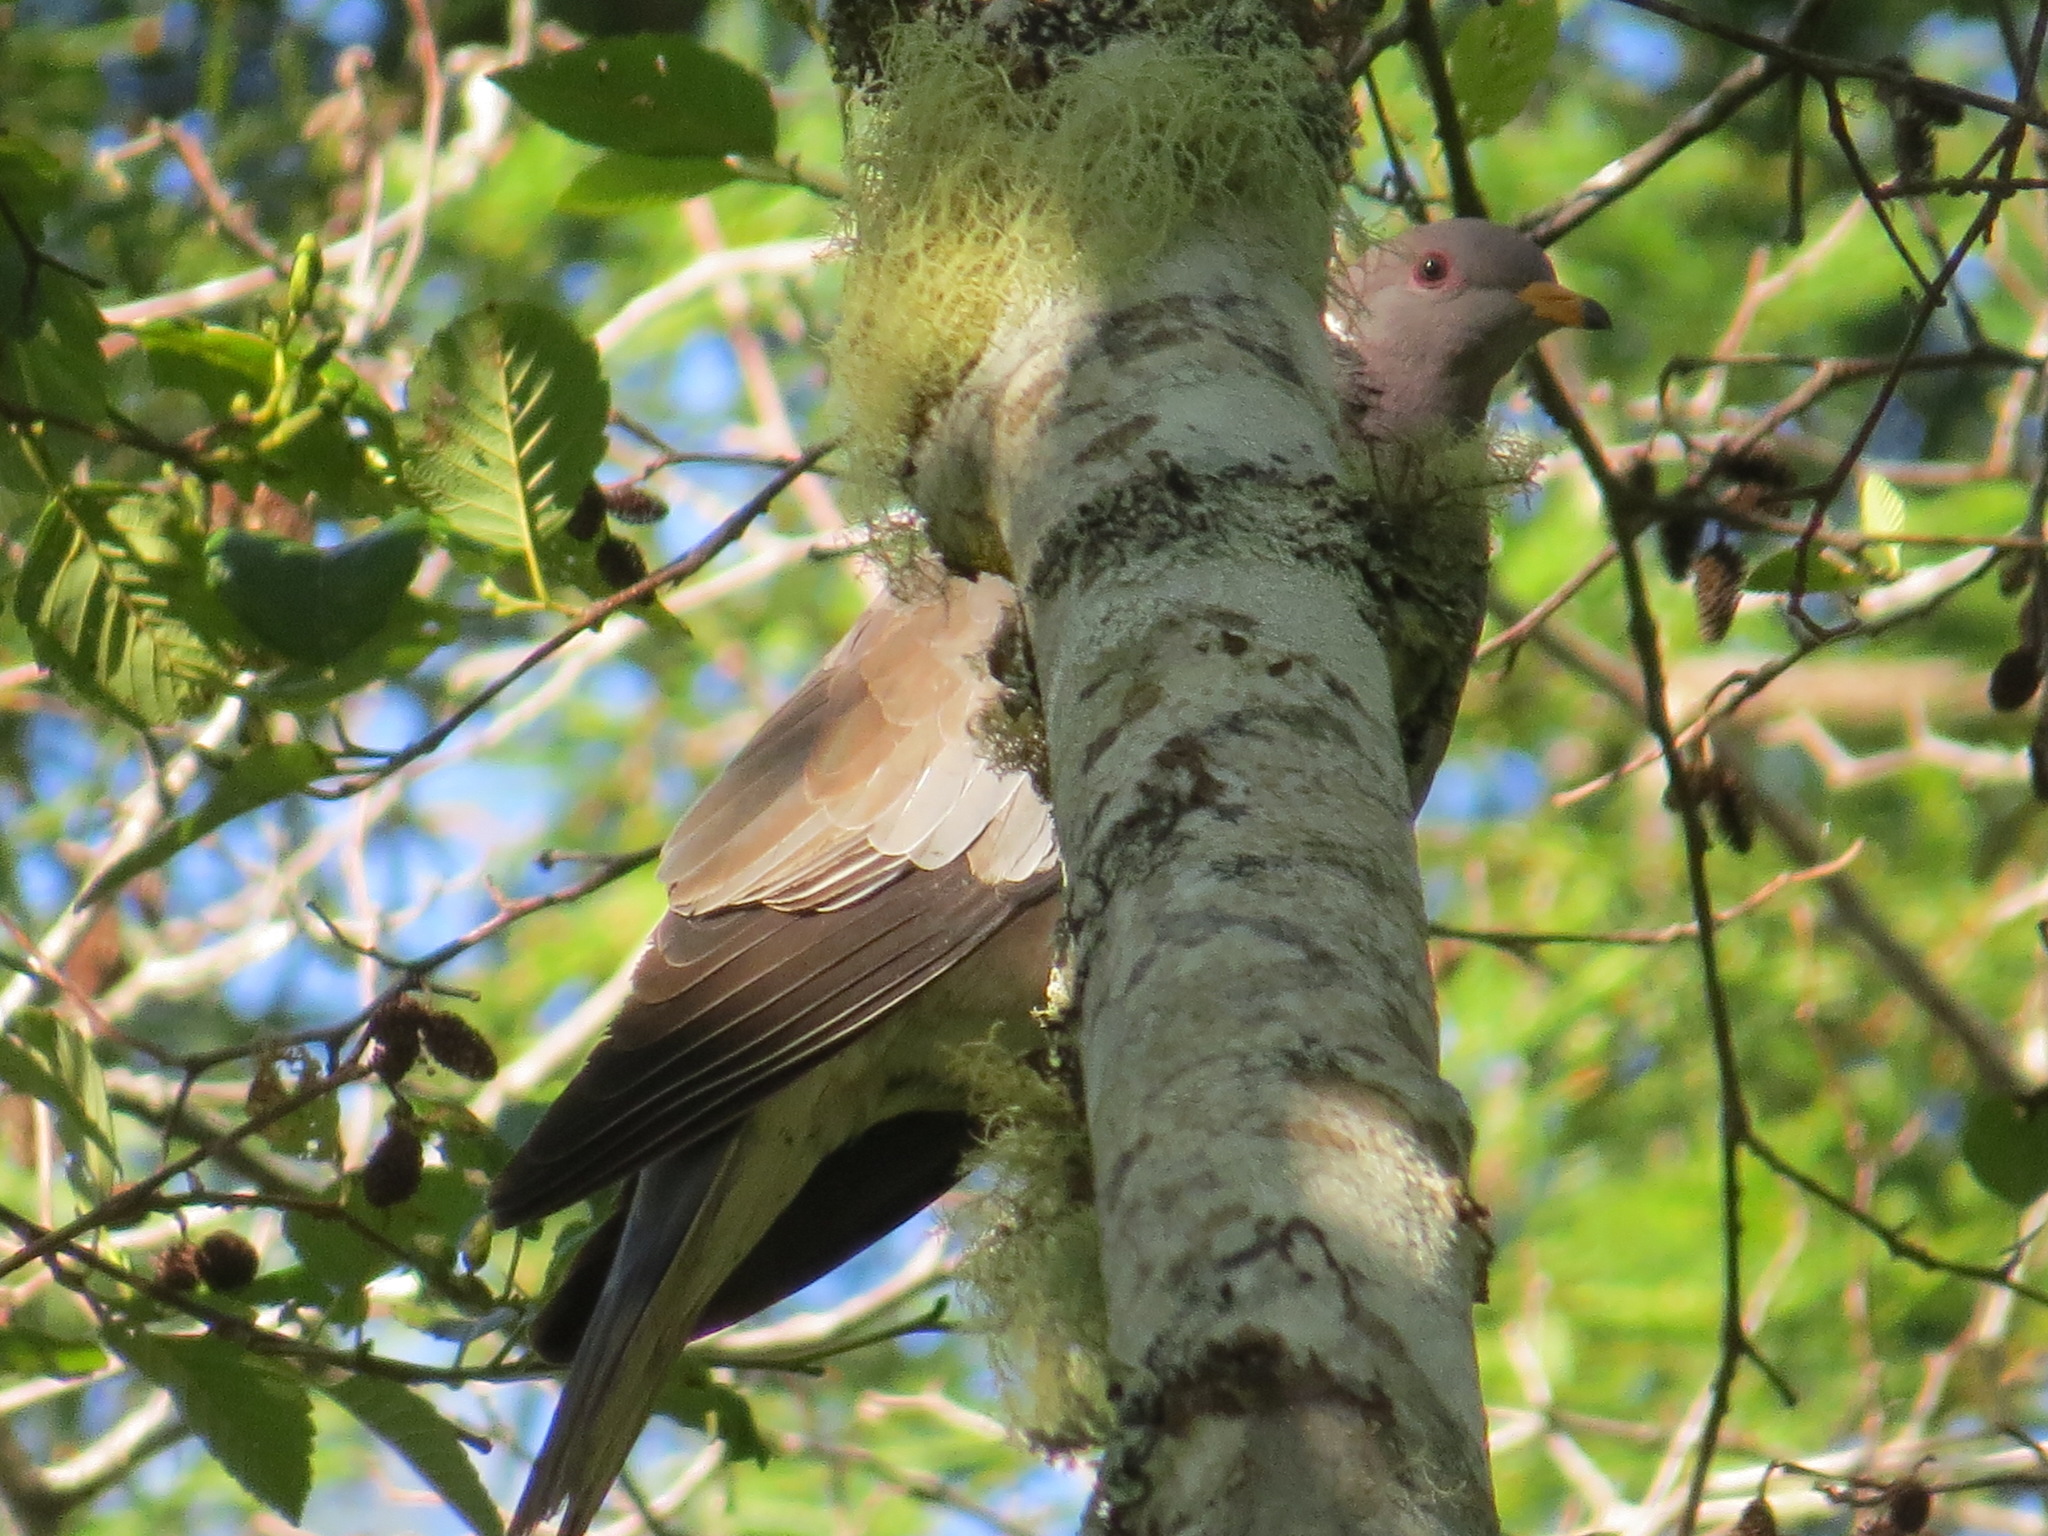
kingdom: Animalia
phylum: Chordata
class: Aves
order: Columbiformes
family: Columbidae
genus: Patagioenas
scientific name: Patagioenas fasciata
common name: Band-tailed pigeon
